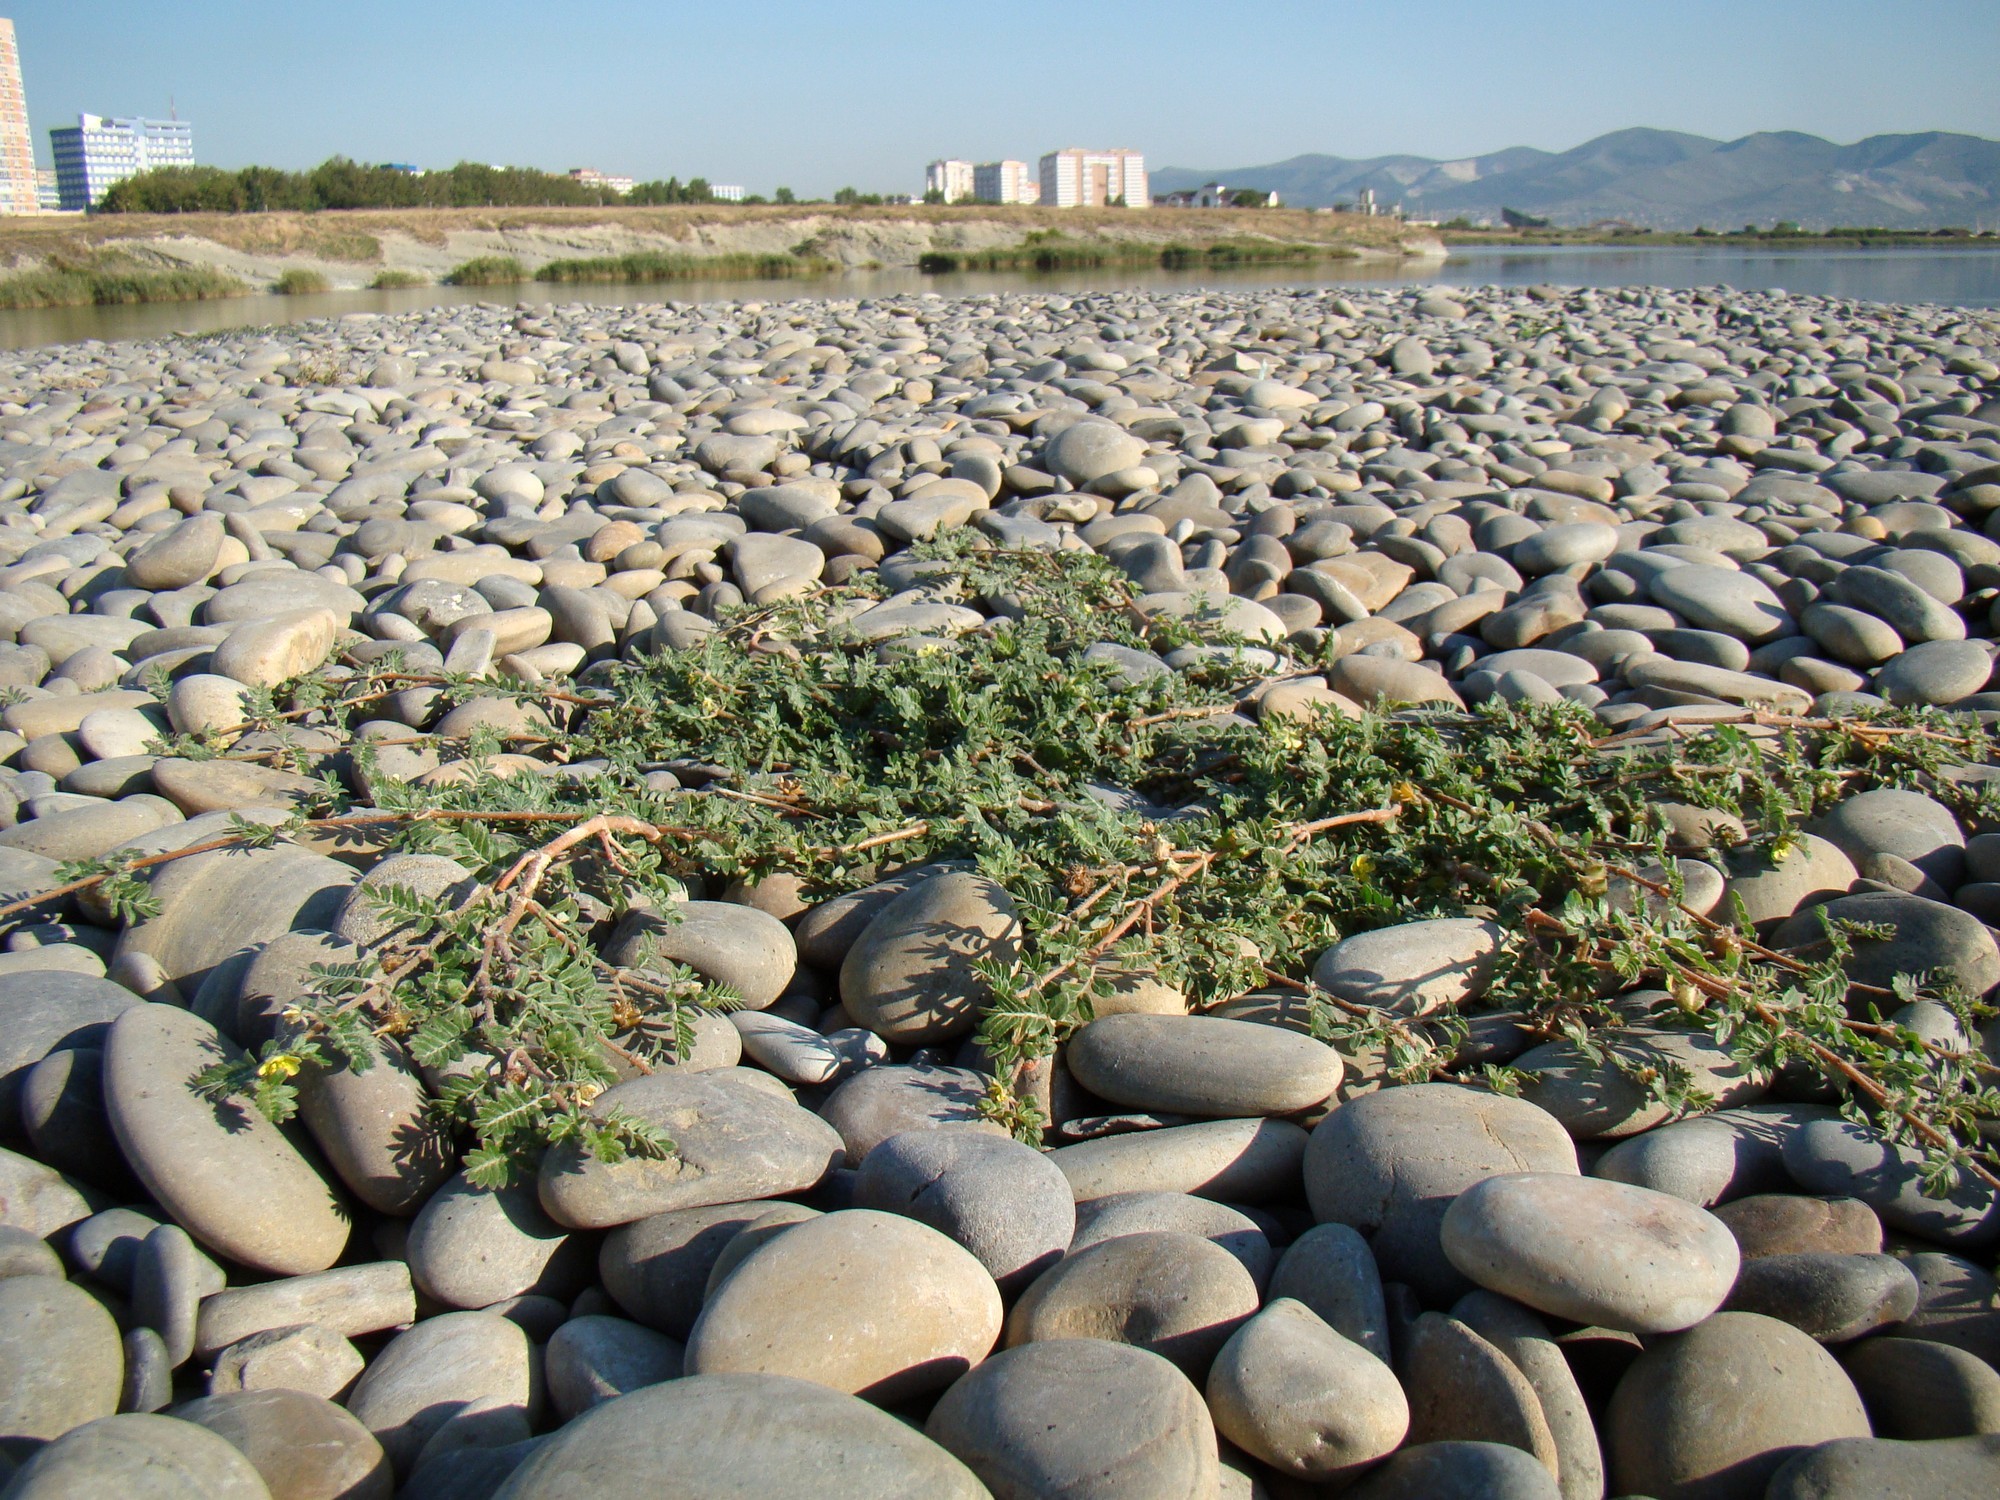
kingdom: Plantae
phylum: Tracheophyta
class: Magnoliopsida
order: Zygophyllales
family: Zygophyllaceae
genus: Tribulus
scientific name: Tribulus terrestris
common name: Puncturevine
